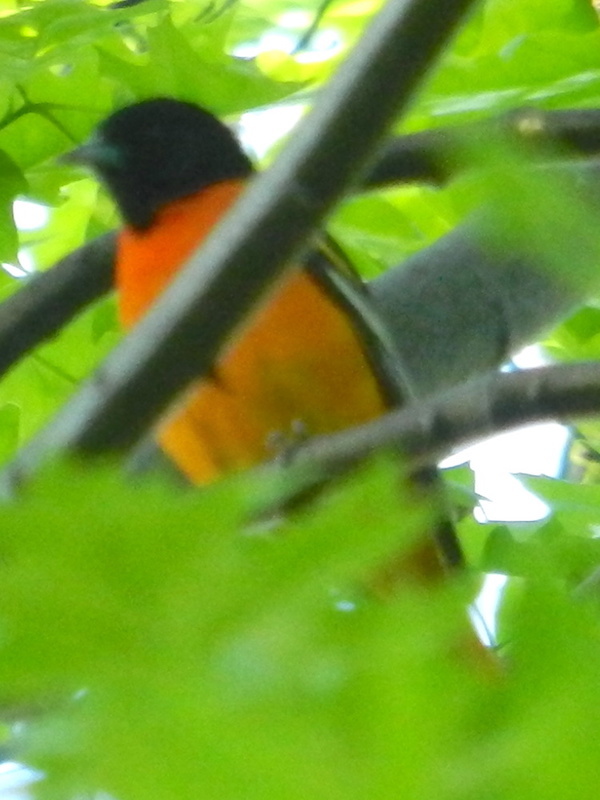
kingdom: Animalia
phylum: Chordata
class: Aves
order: Passeriformes
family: Icteridae
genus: Icterus
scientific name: Icterus galbula
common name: Baltimore oriole
